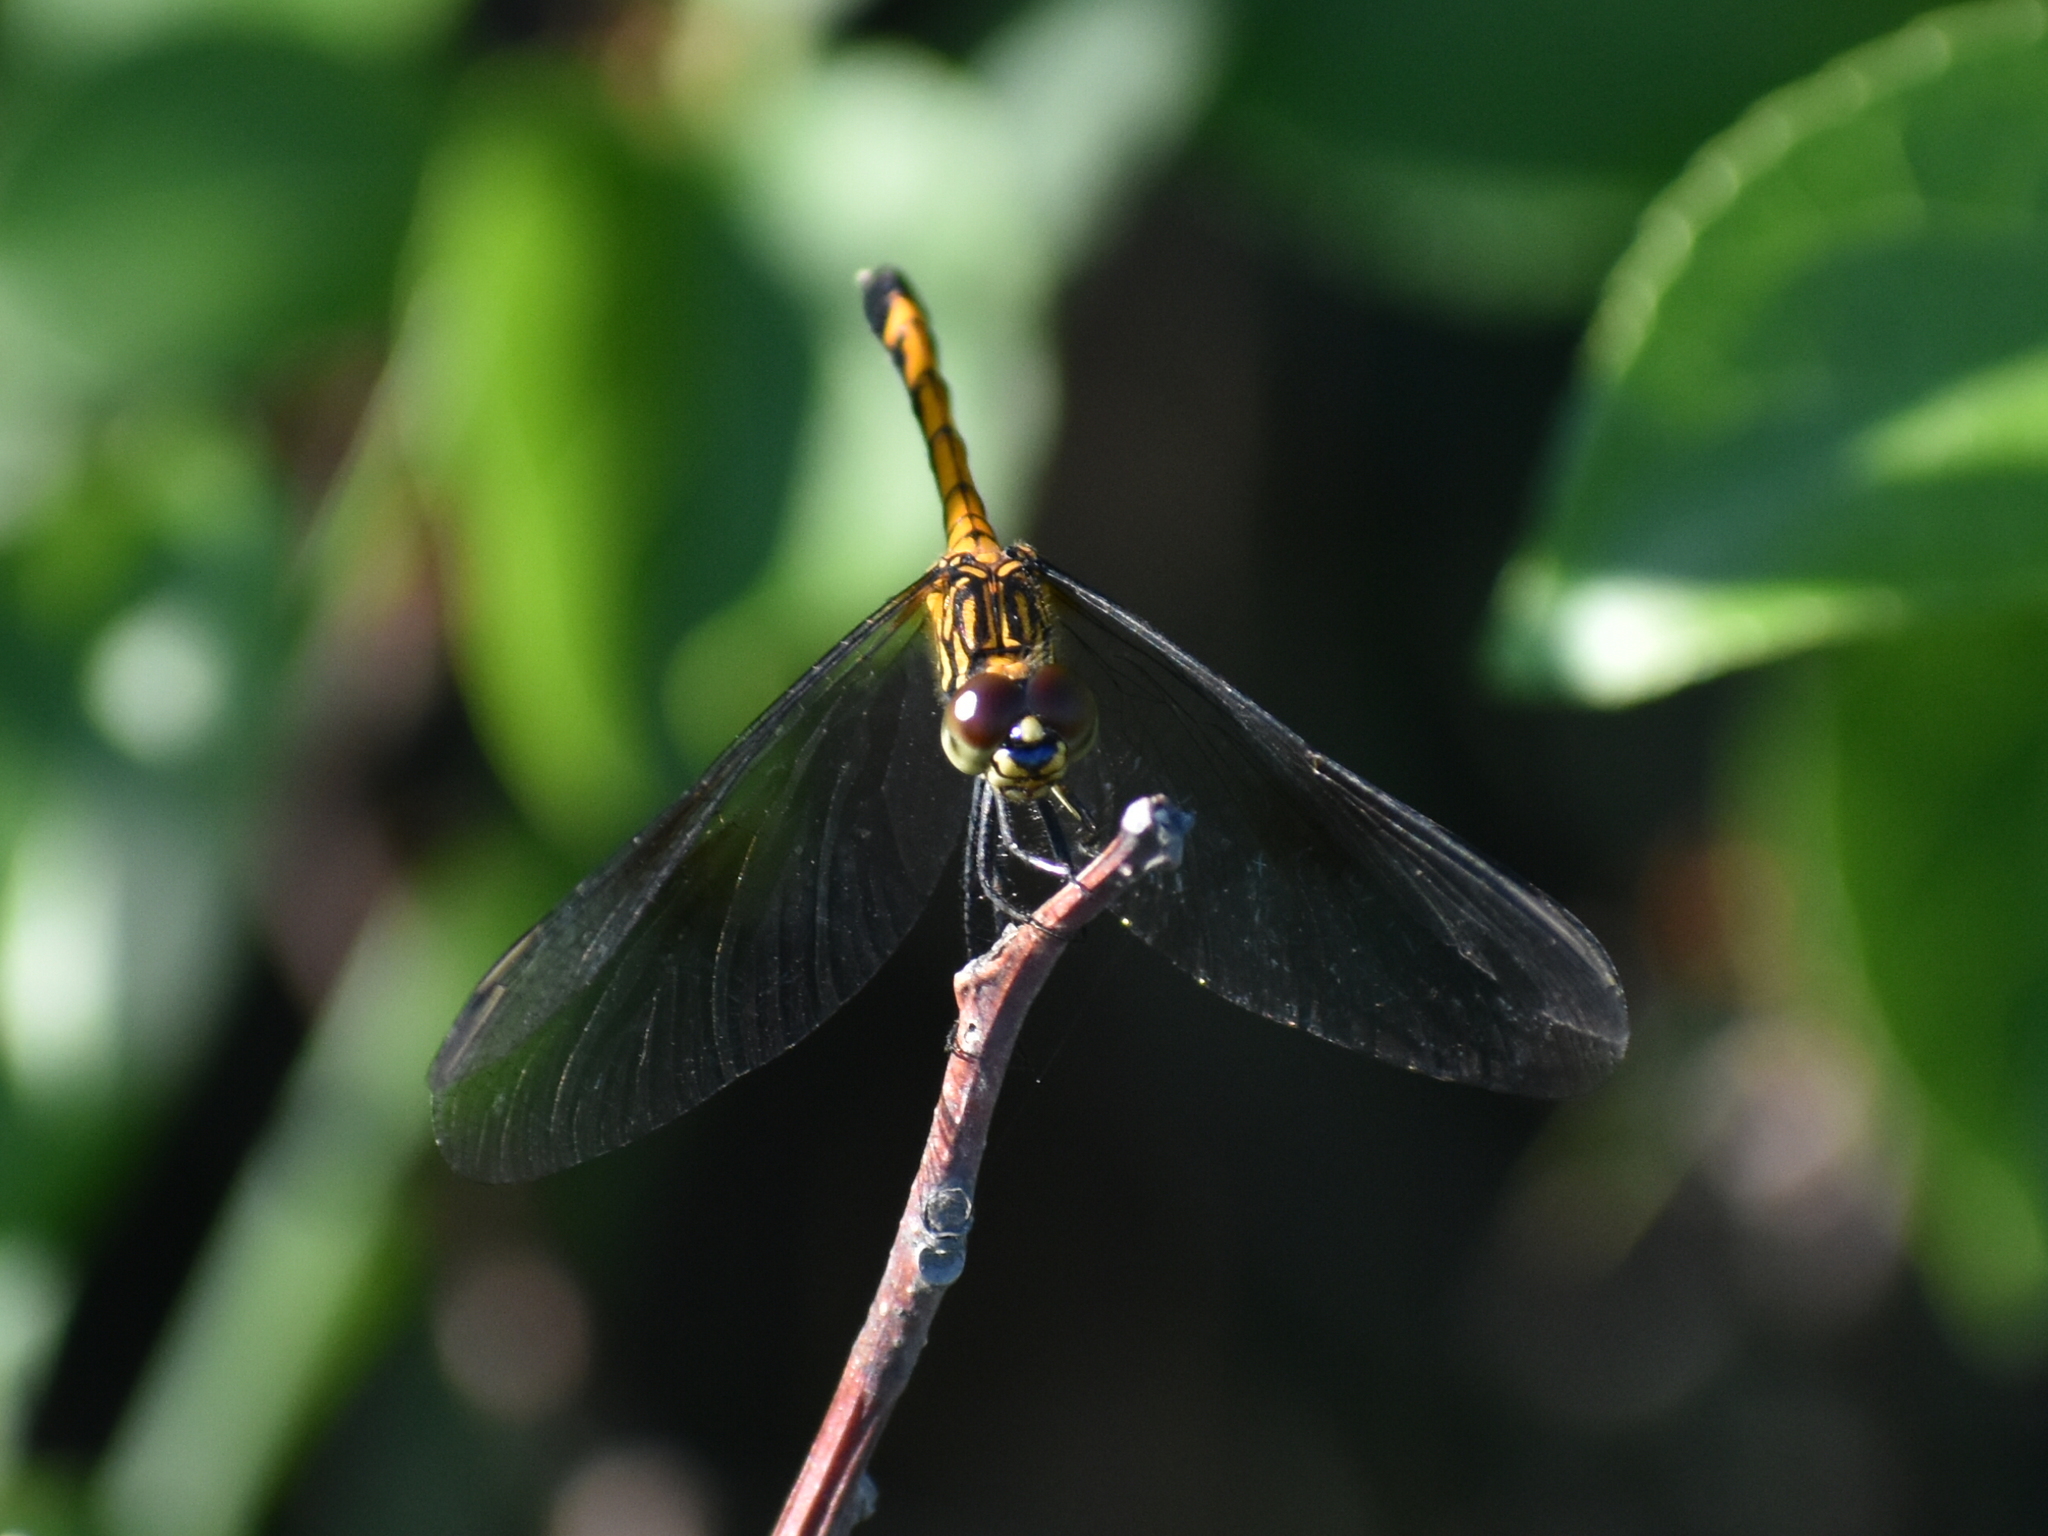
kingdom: Animalia
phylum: Arthropoda
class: Insecta
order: Odonata
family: Libellulidae
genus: Erythrodiplax
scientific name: Erythrodiplax berenice
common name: Seaside dragonlet
